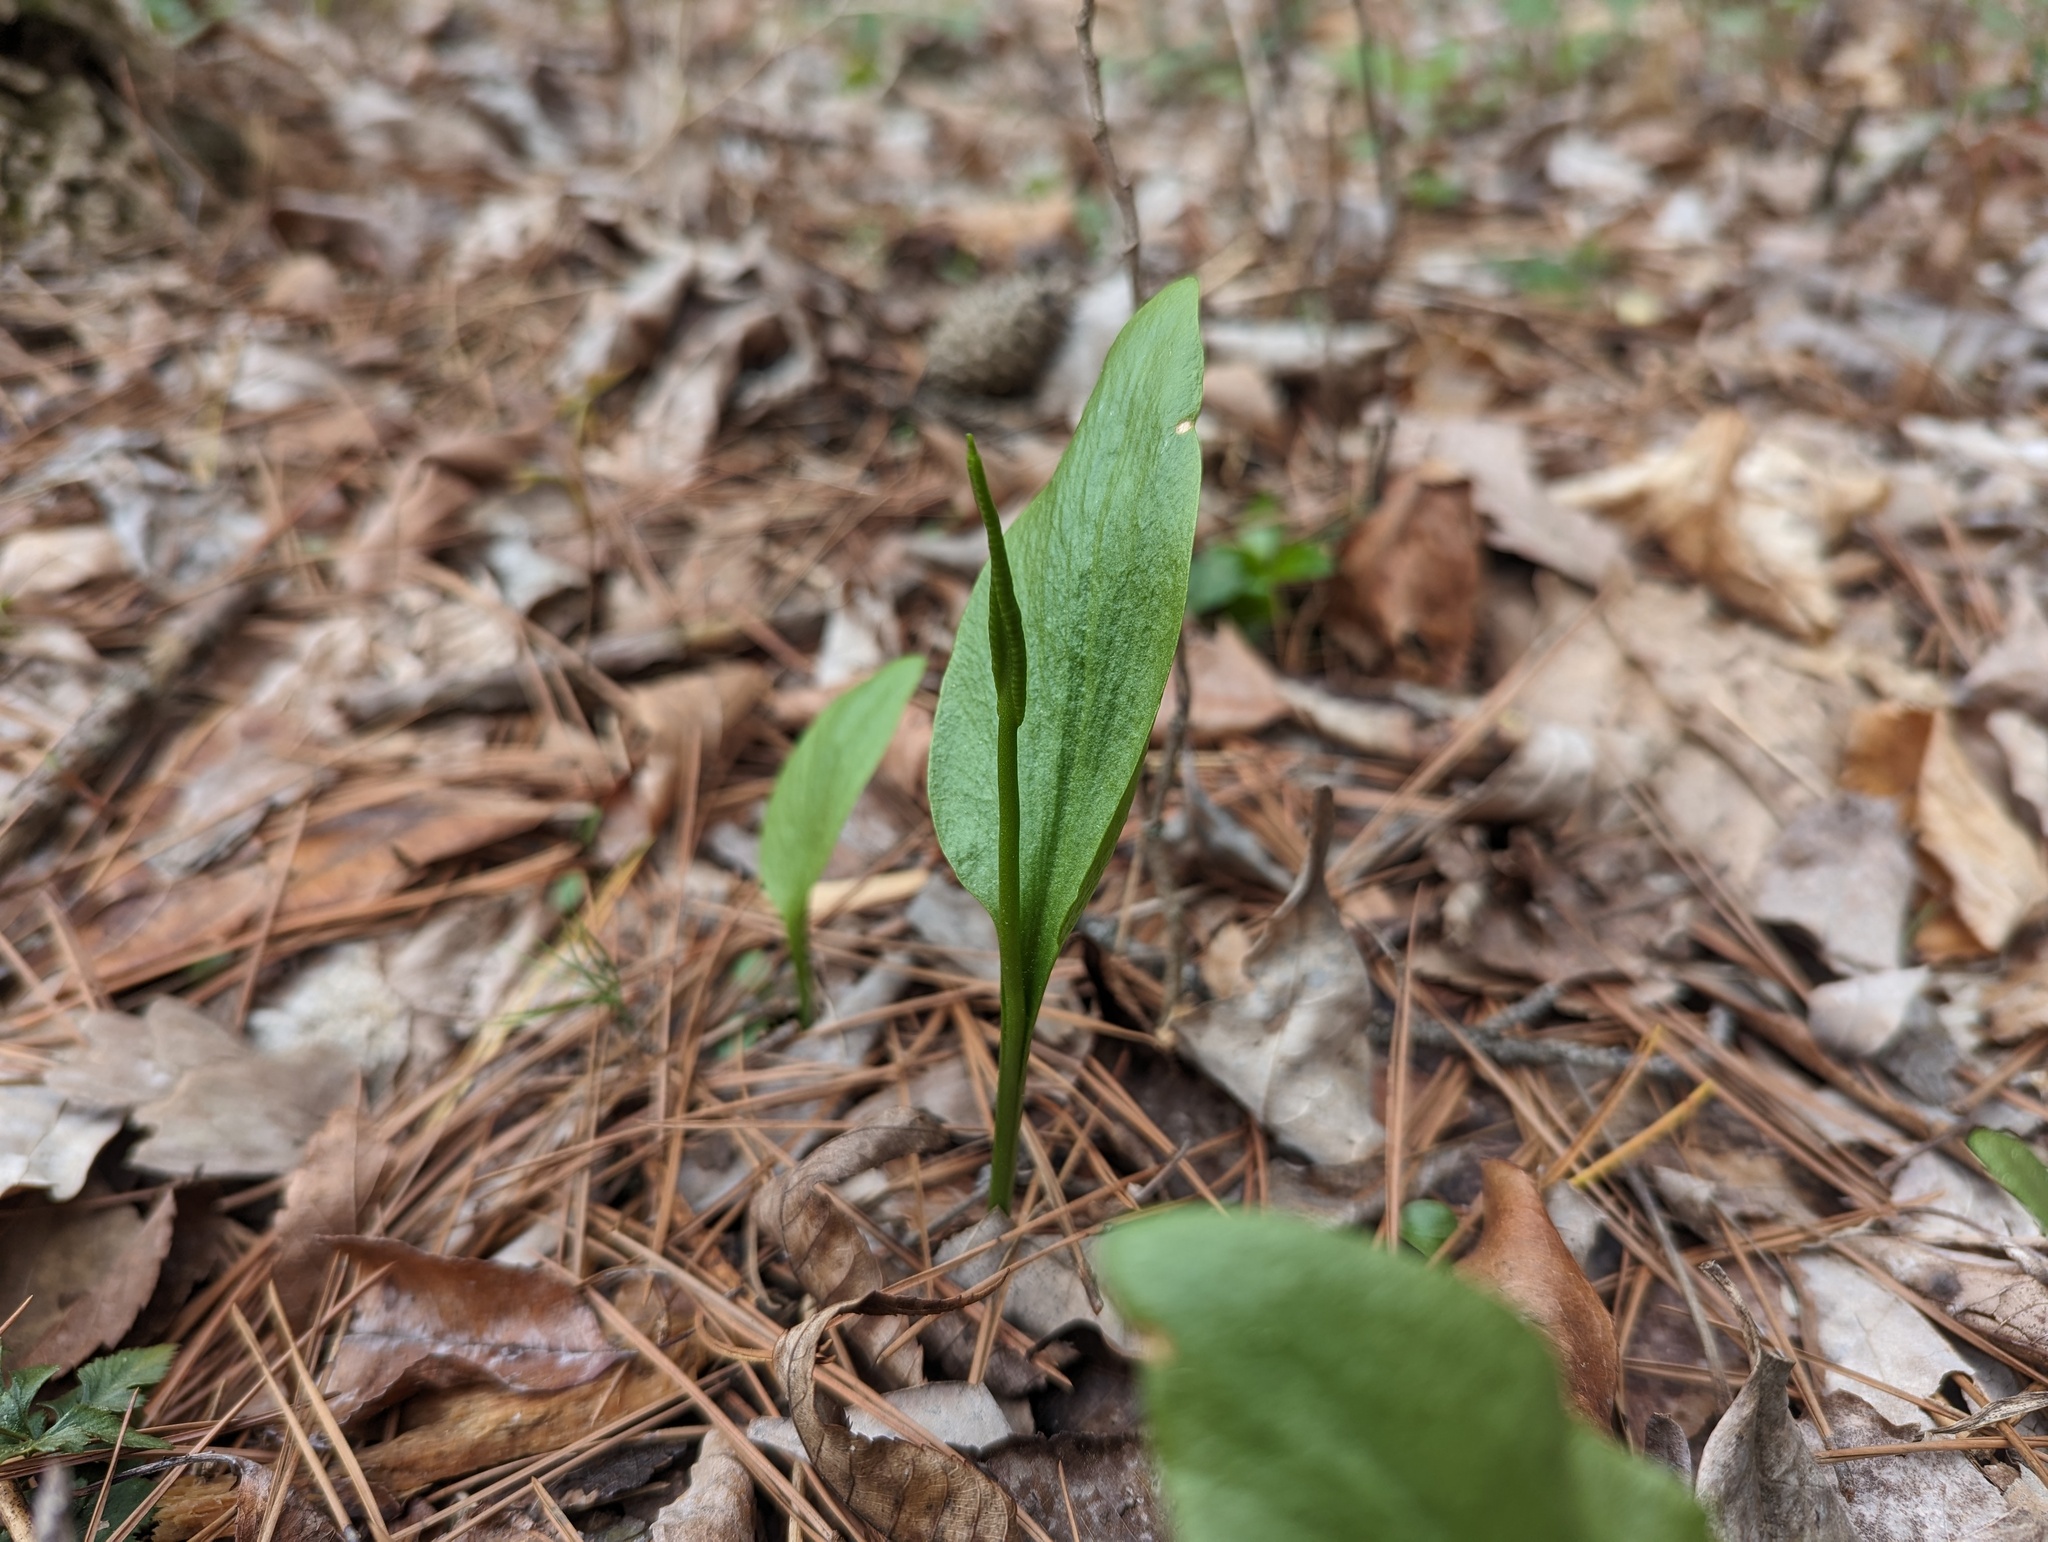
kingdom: Plantae
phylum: Tracheophyta
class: Polypodiopsida
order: Ophioglossales
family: Ophioglossaceae
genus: Ophioglossum
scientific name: Ophioglossum vulgatum
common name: Adder's-tongue
